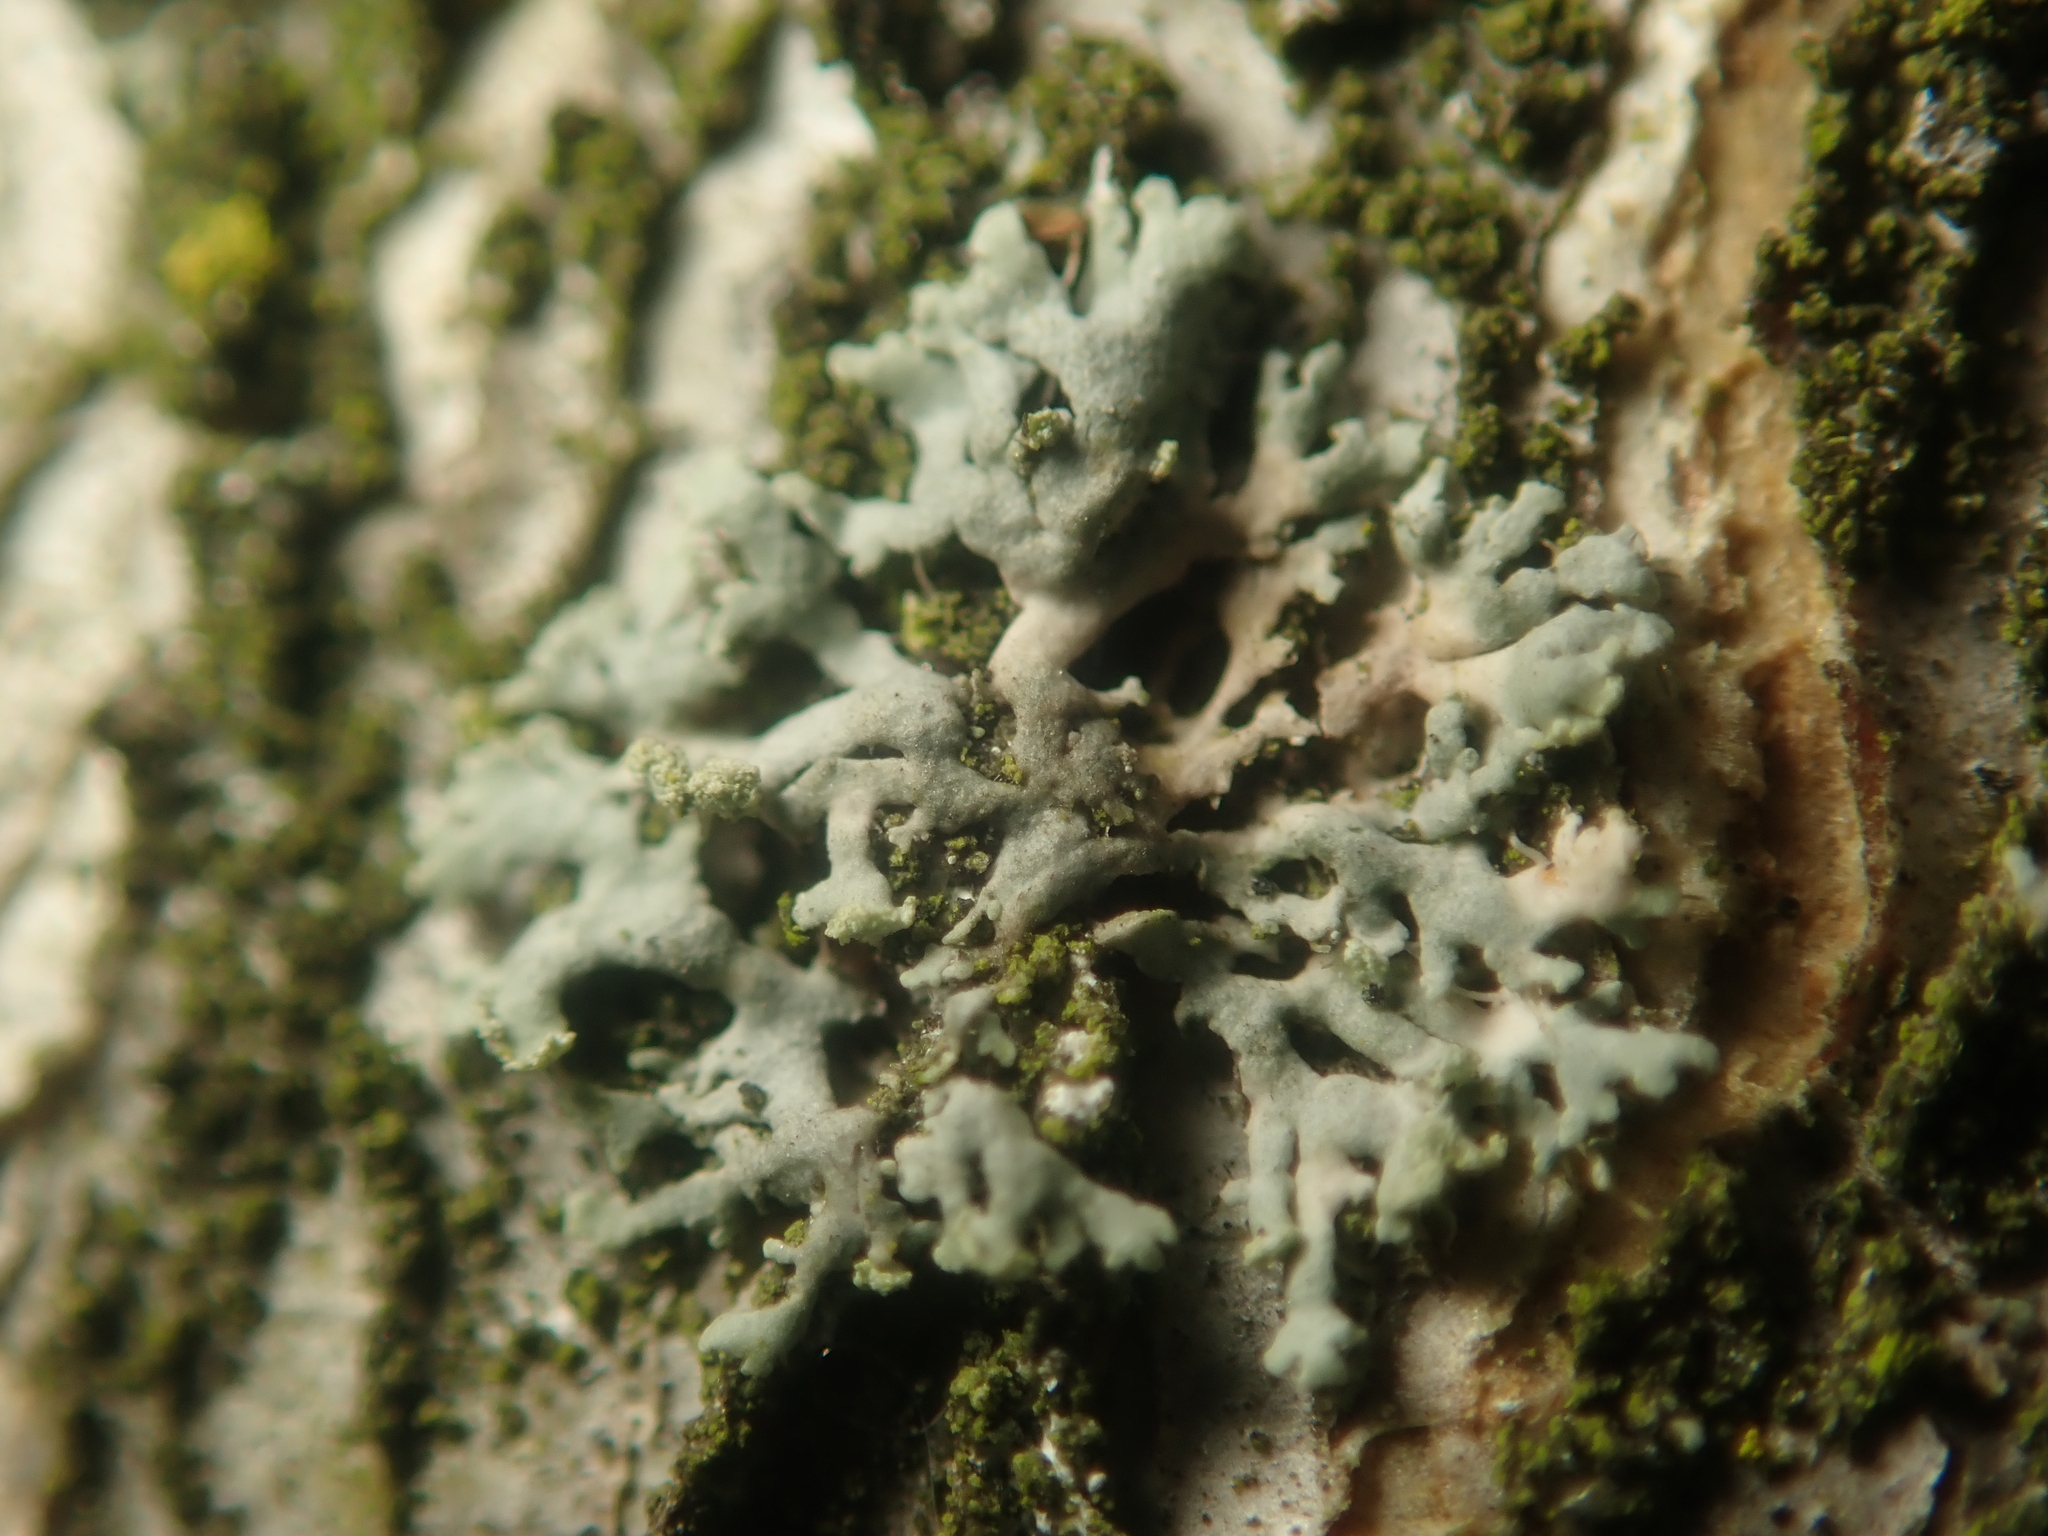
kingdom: Fungi
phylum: Ascomycota
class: Lecanoromycetes
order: Caliciales
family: Physciaceae
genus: Physcia
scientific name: Physcia tenella
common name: Fringed rosette lichen
